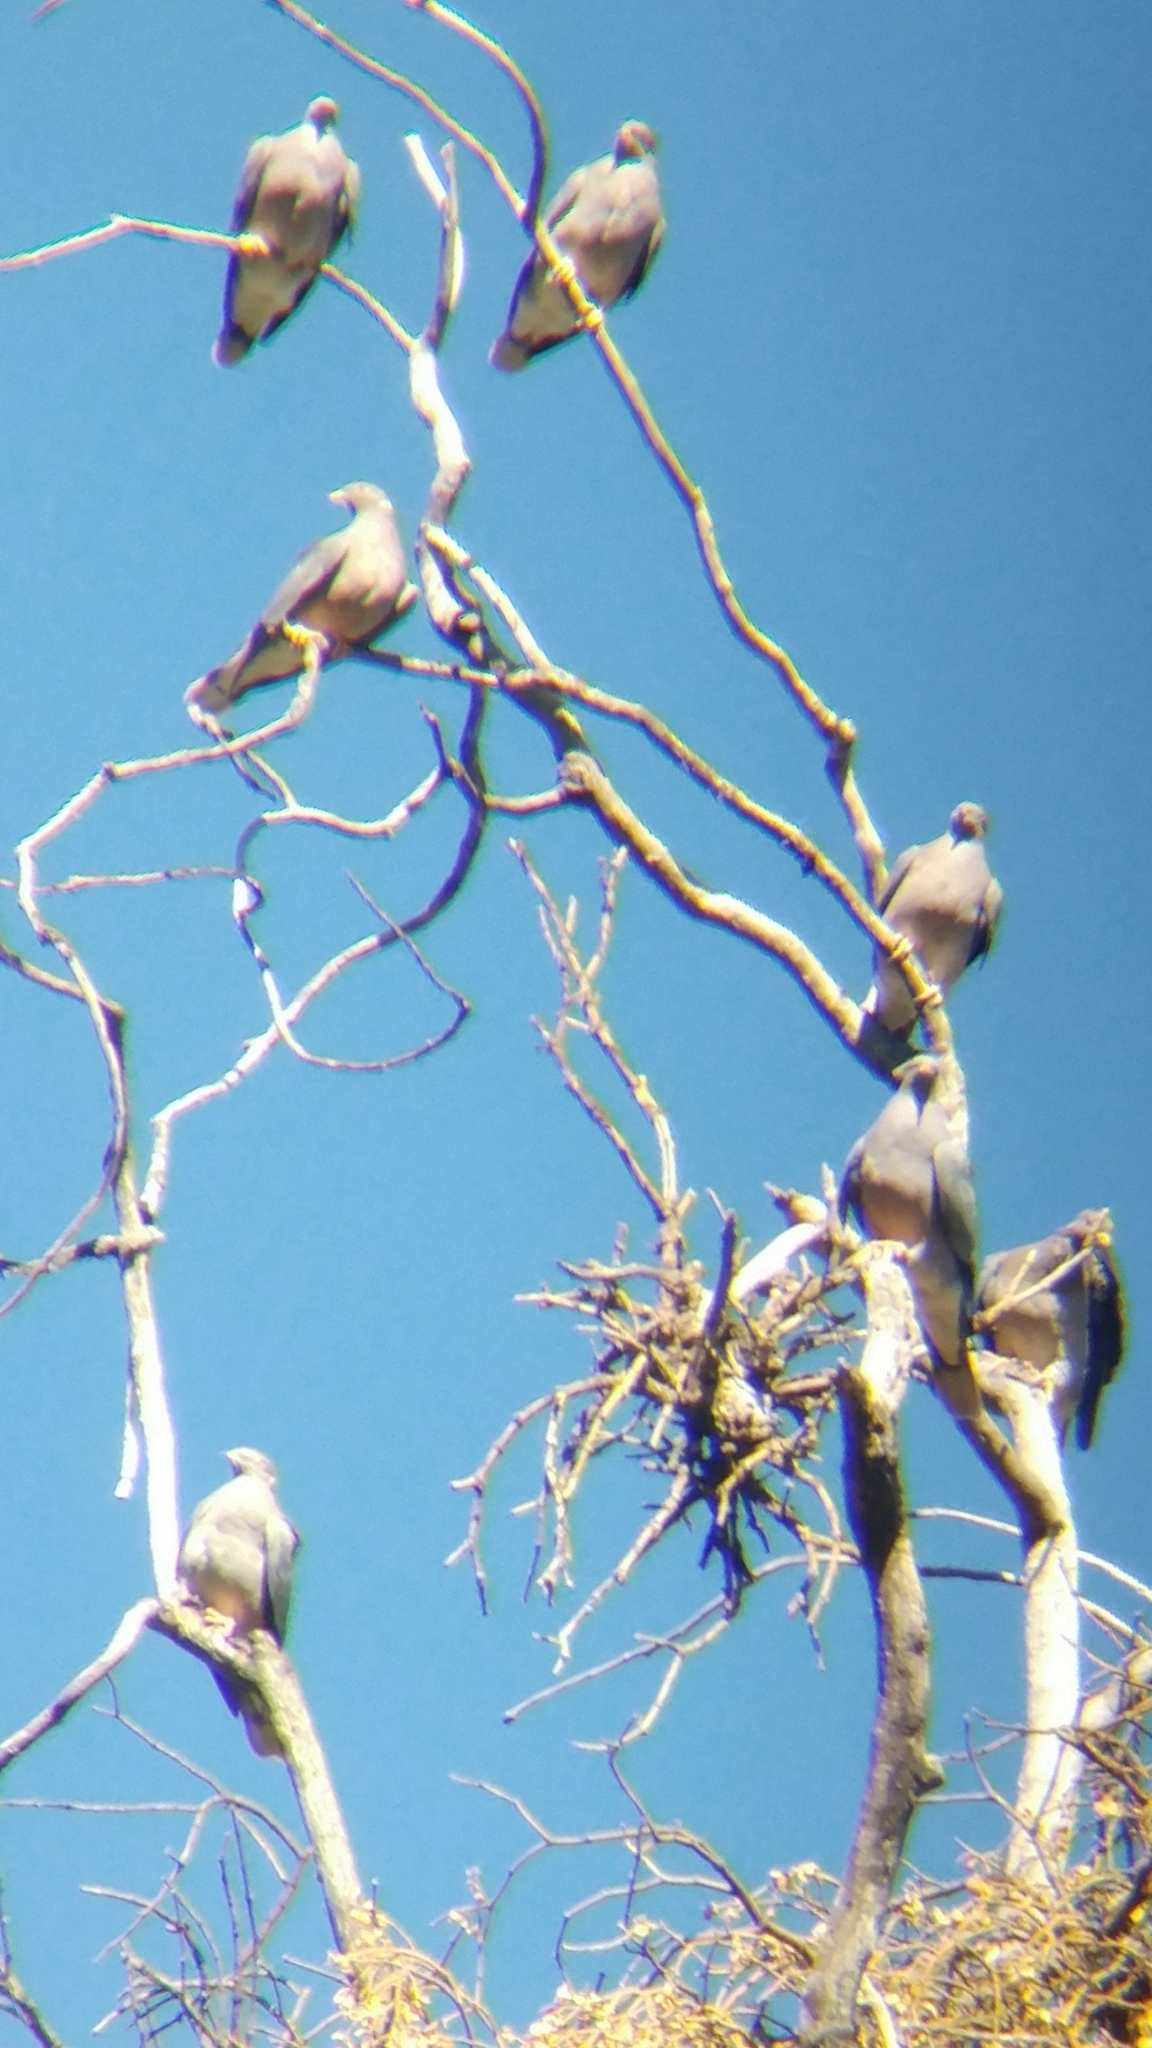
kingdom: Animalia
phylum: Chordata
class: Aves
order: Columbiformes
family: Columbidae
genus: Patagioenas
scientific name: Patagioenas fasciata
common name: Band-tailed pigeon
